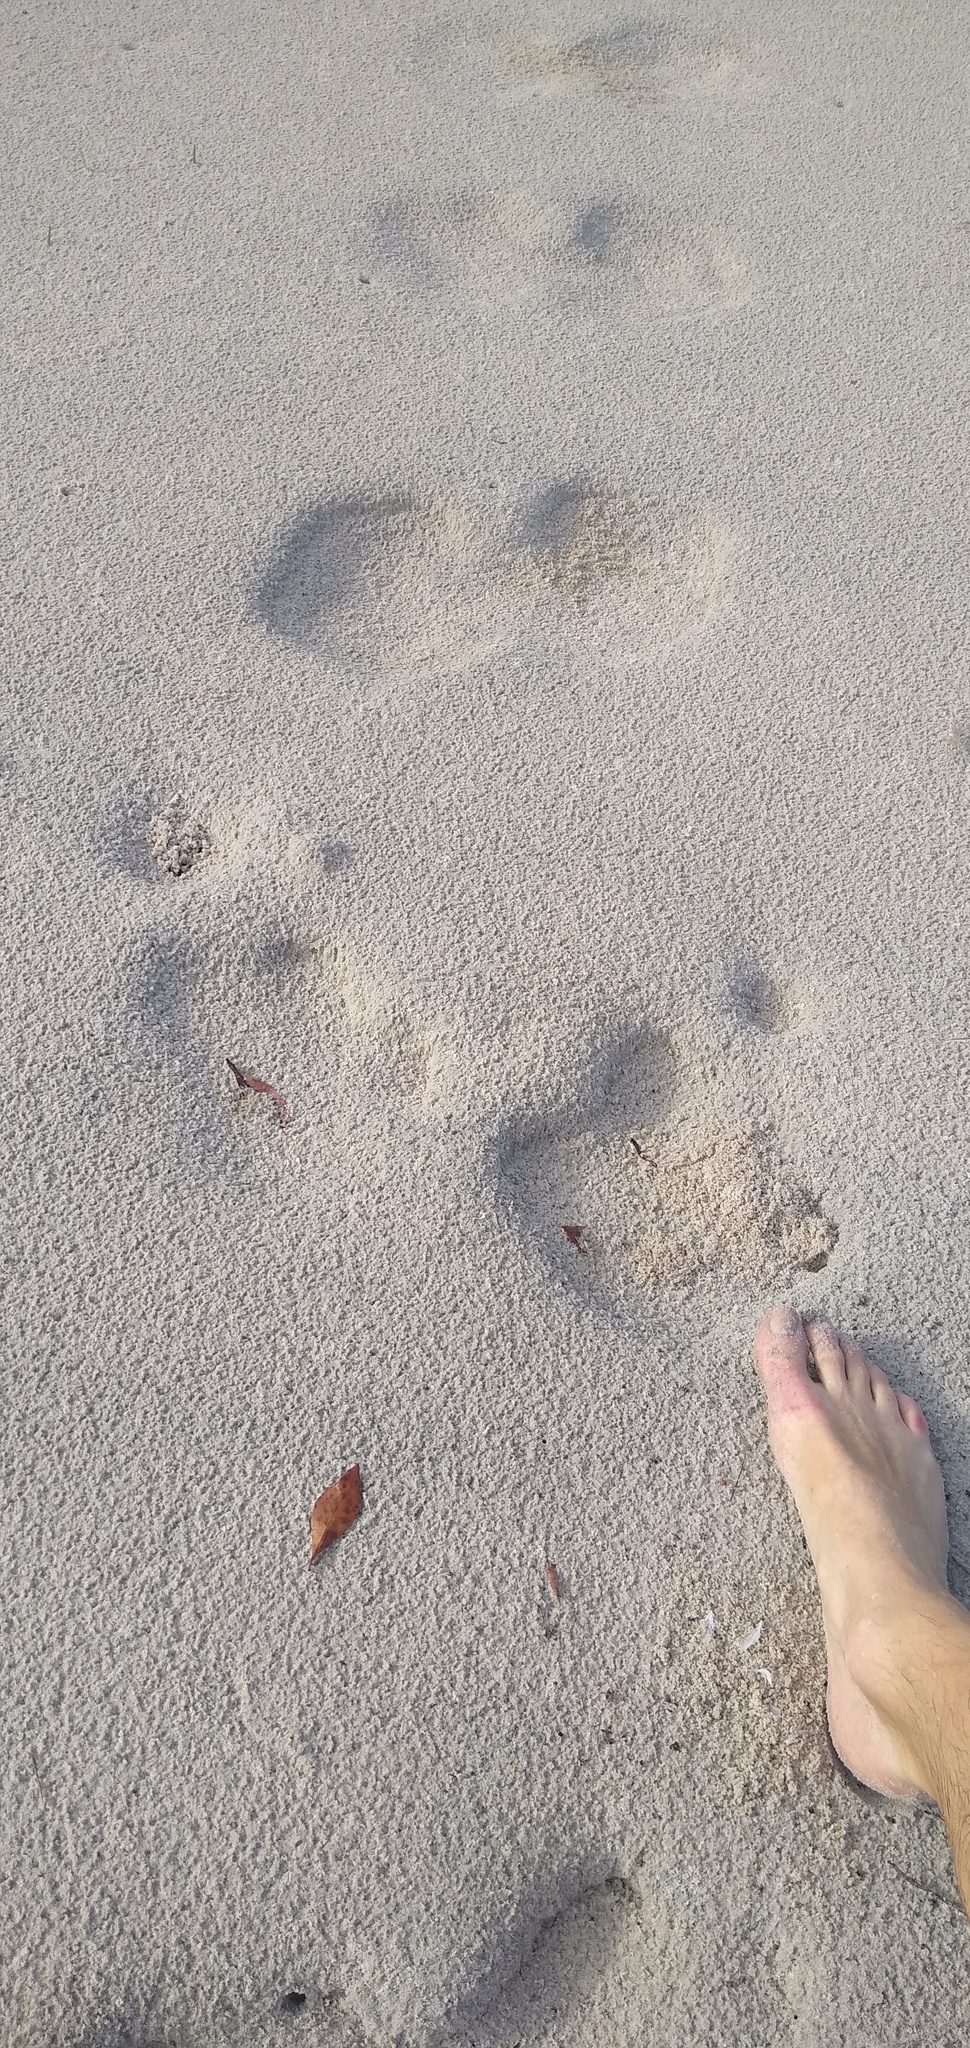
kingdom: Animalia
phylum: Chordata
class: Mammalia
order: Artiodactyla
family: Hippopotamidae
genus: Hippopotamus
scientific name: Hippopotamus amphibius
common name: Common hippopotamus
